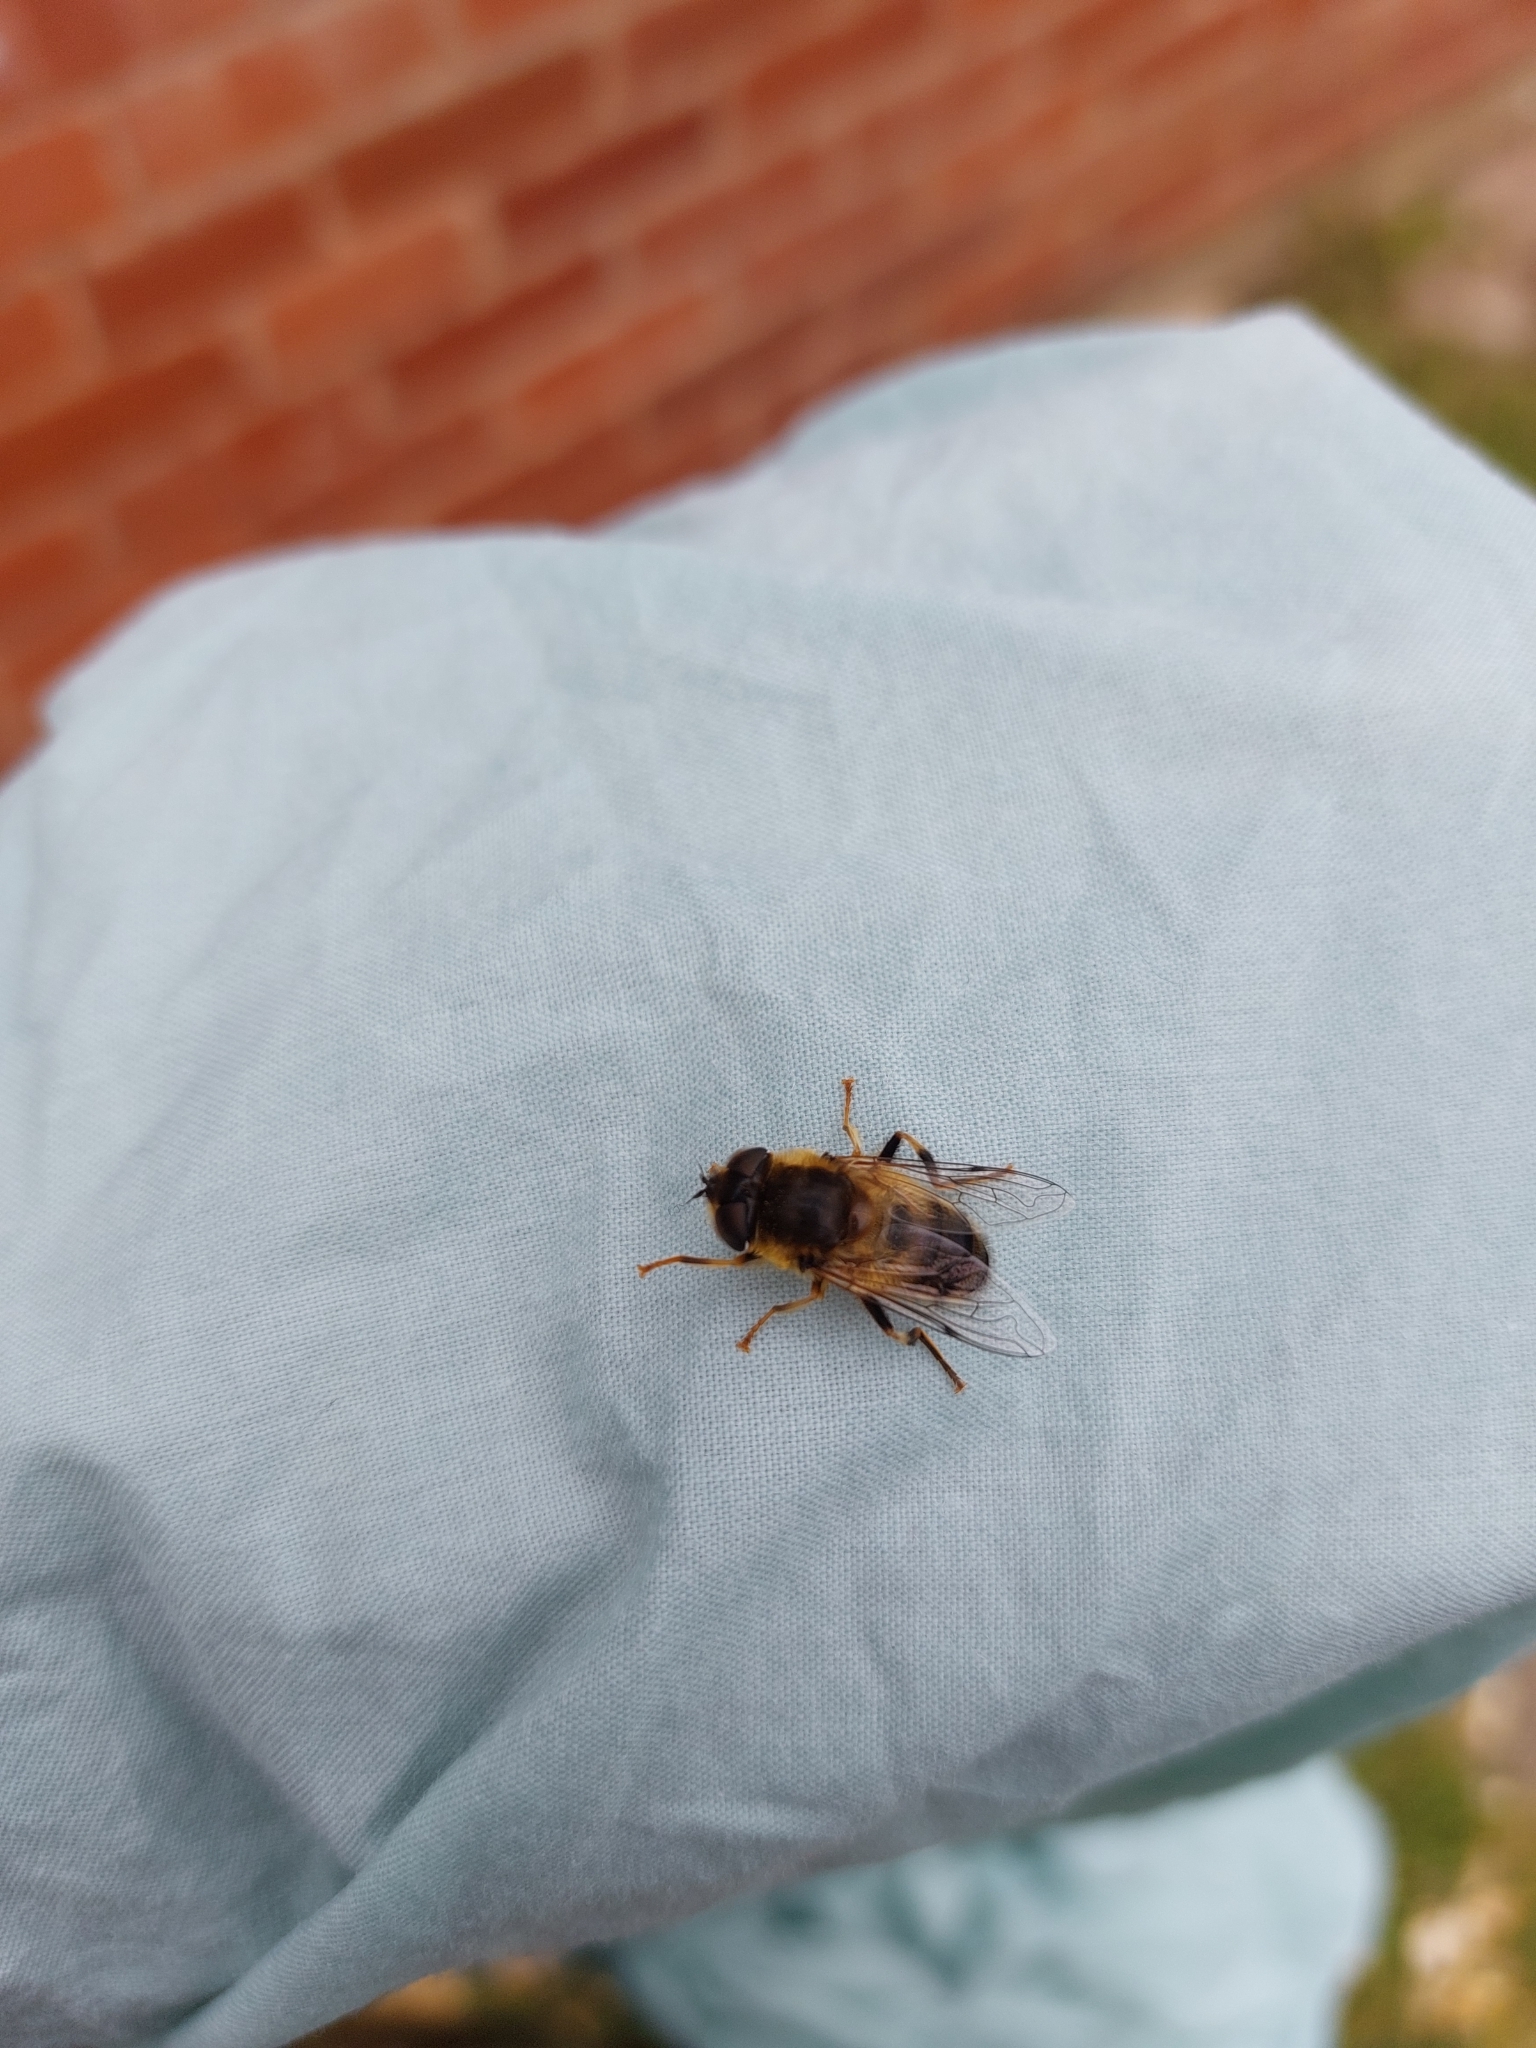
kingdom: Animalia
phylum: Arthropoda
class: Insecta
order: Diptera
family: Syrphidae
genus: Eristalis
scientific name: Eristalis pertinax
